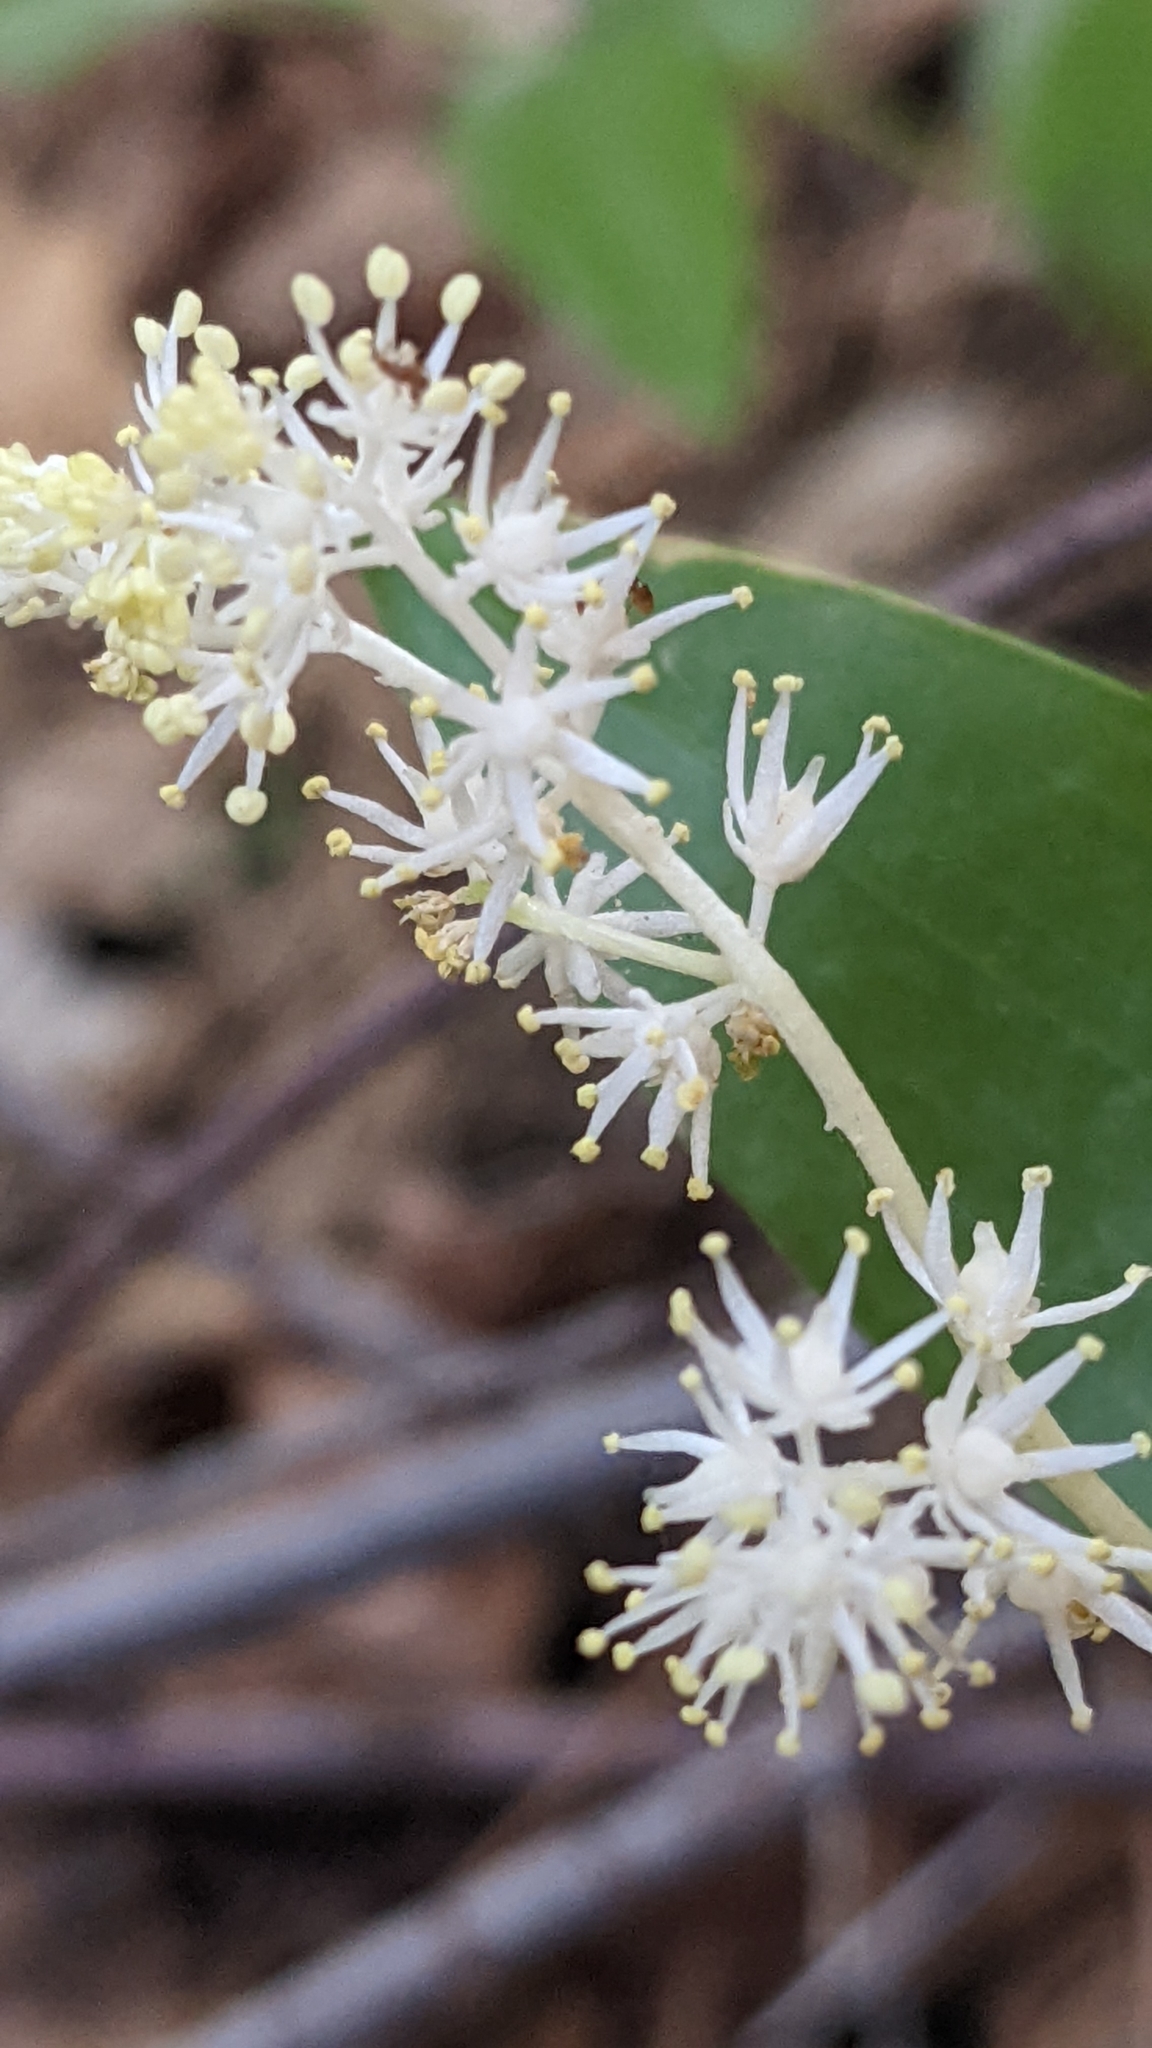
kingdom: Plantae
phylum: Tracheophyta
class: Liliopsida
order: Asparagales
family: Asparagaceae
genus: Maianthemum
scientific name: Maianthemum racemosum
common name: False spikenard
